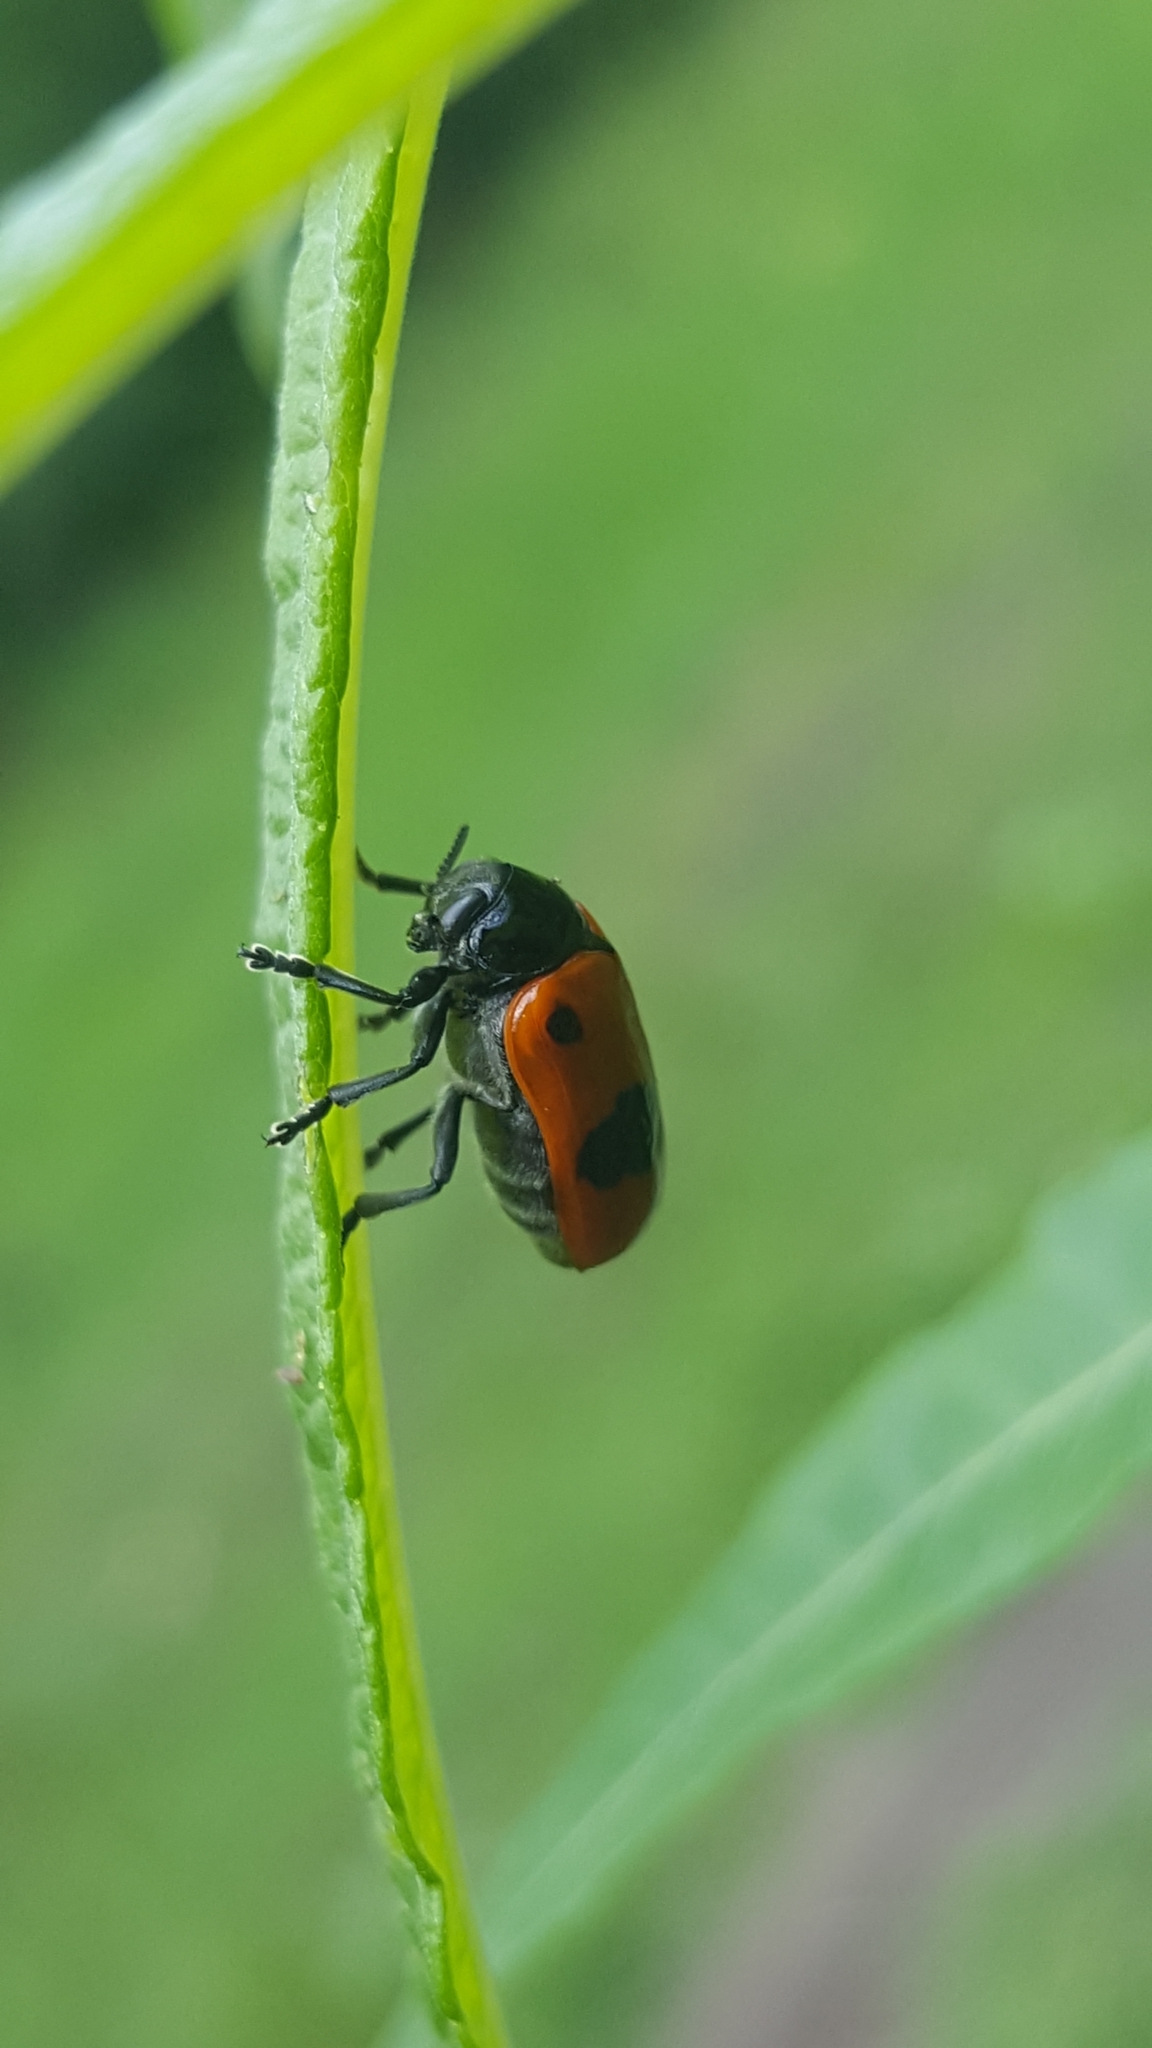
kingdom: Animalia
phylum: Arthropoda
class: Insecta
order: Coleoptera
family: Chrysomelidae
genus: Clytra
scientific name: Clytra laeviuscula
